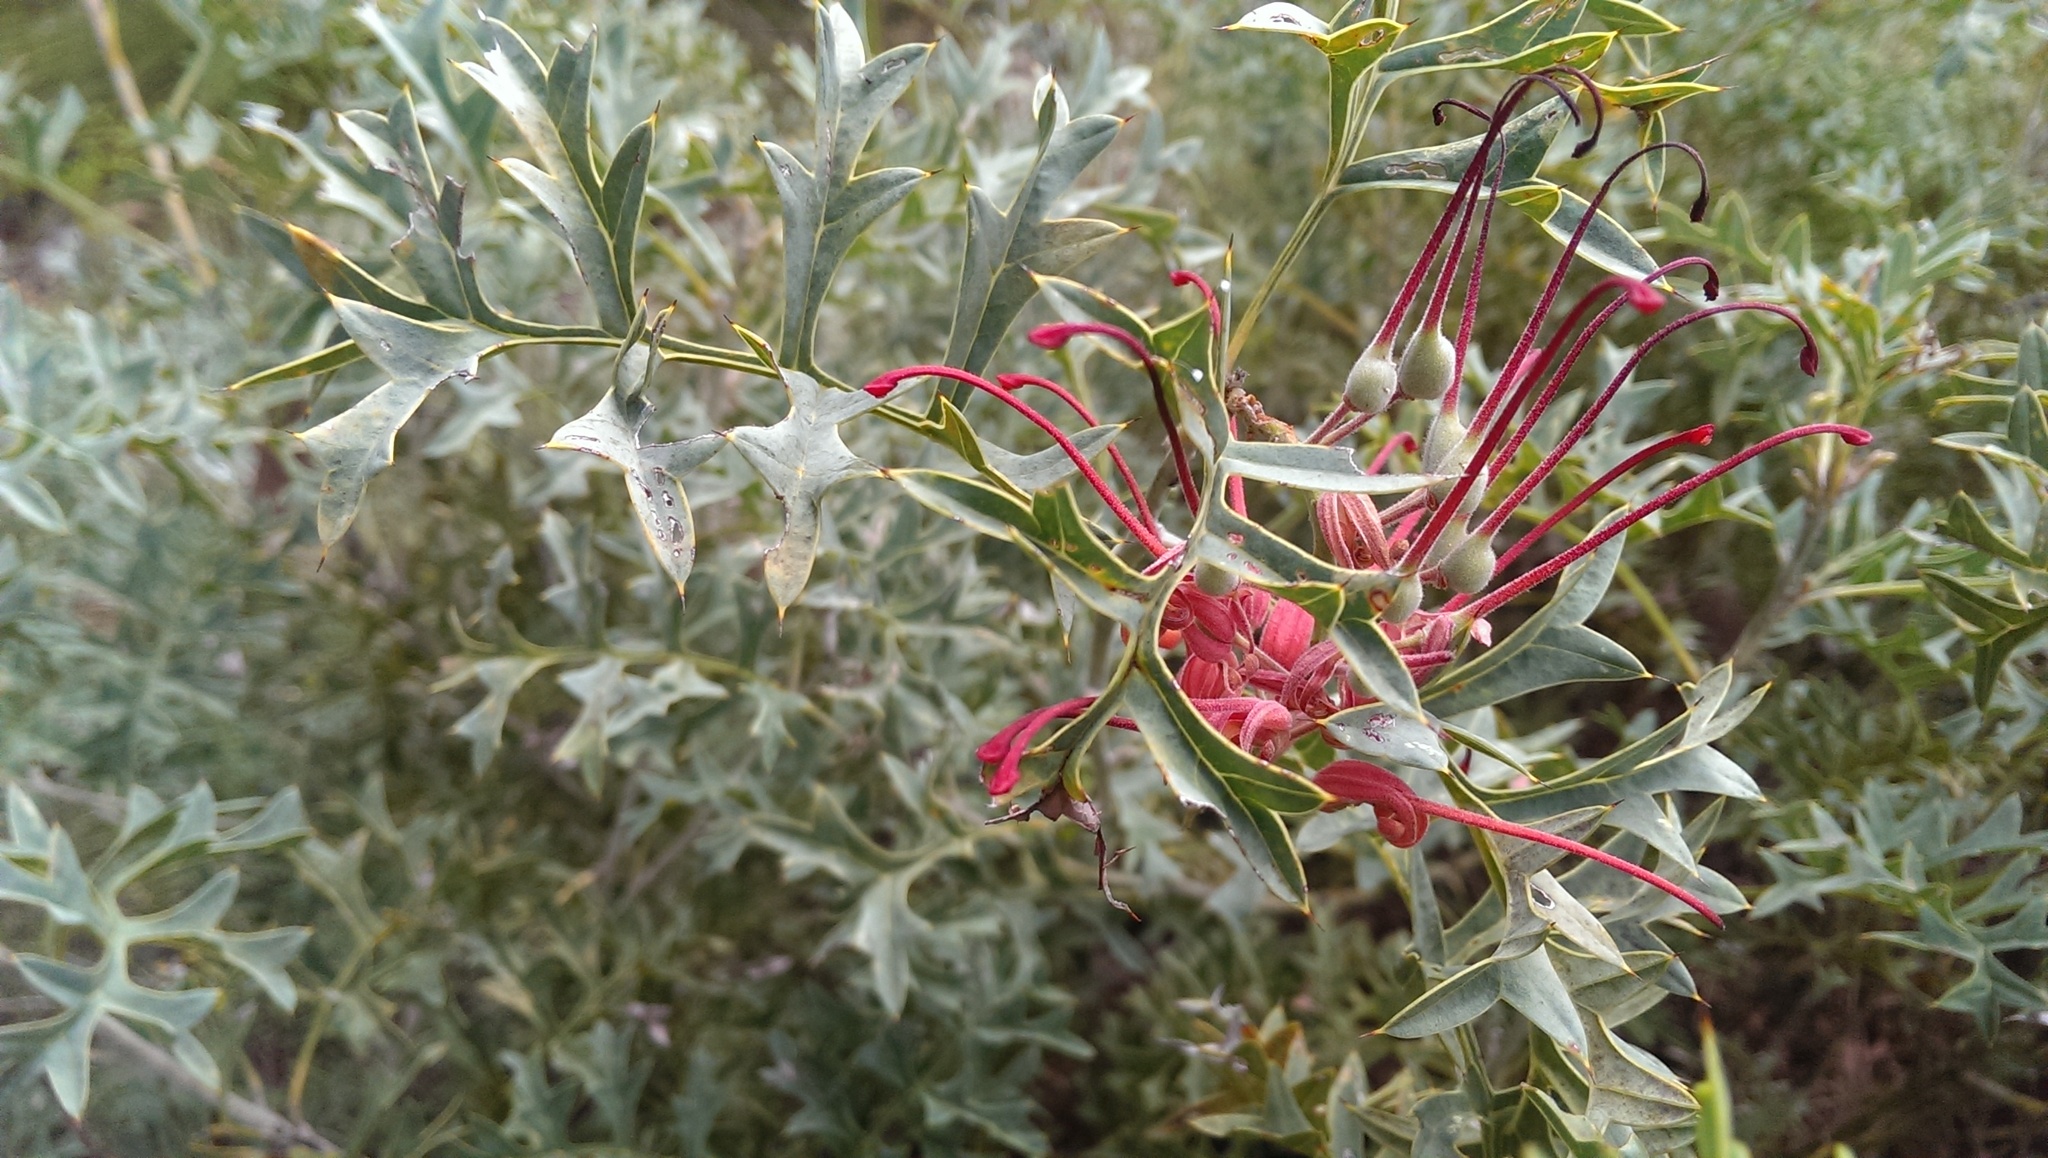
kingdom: Plantae
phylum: Tracheophyta
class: Magnoliopsida
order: Proteales
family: Proteaceae
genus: Grevillea
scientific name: Grevillea bipinnatifida
